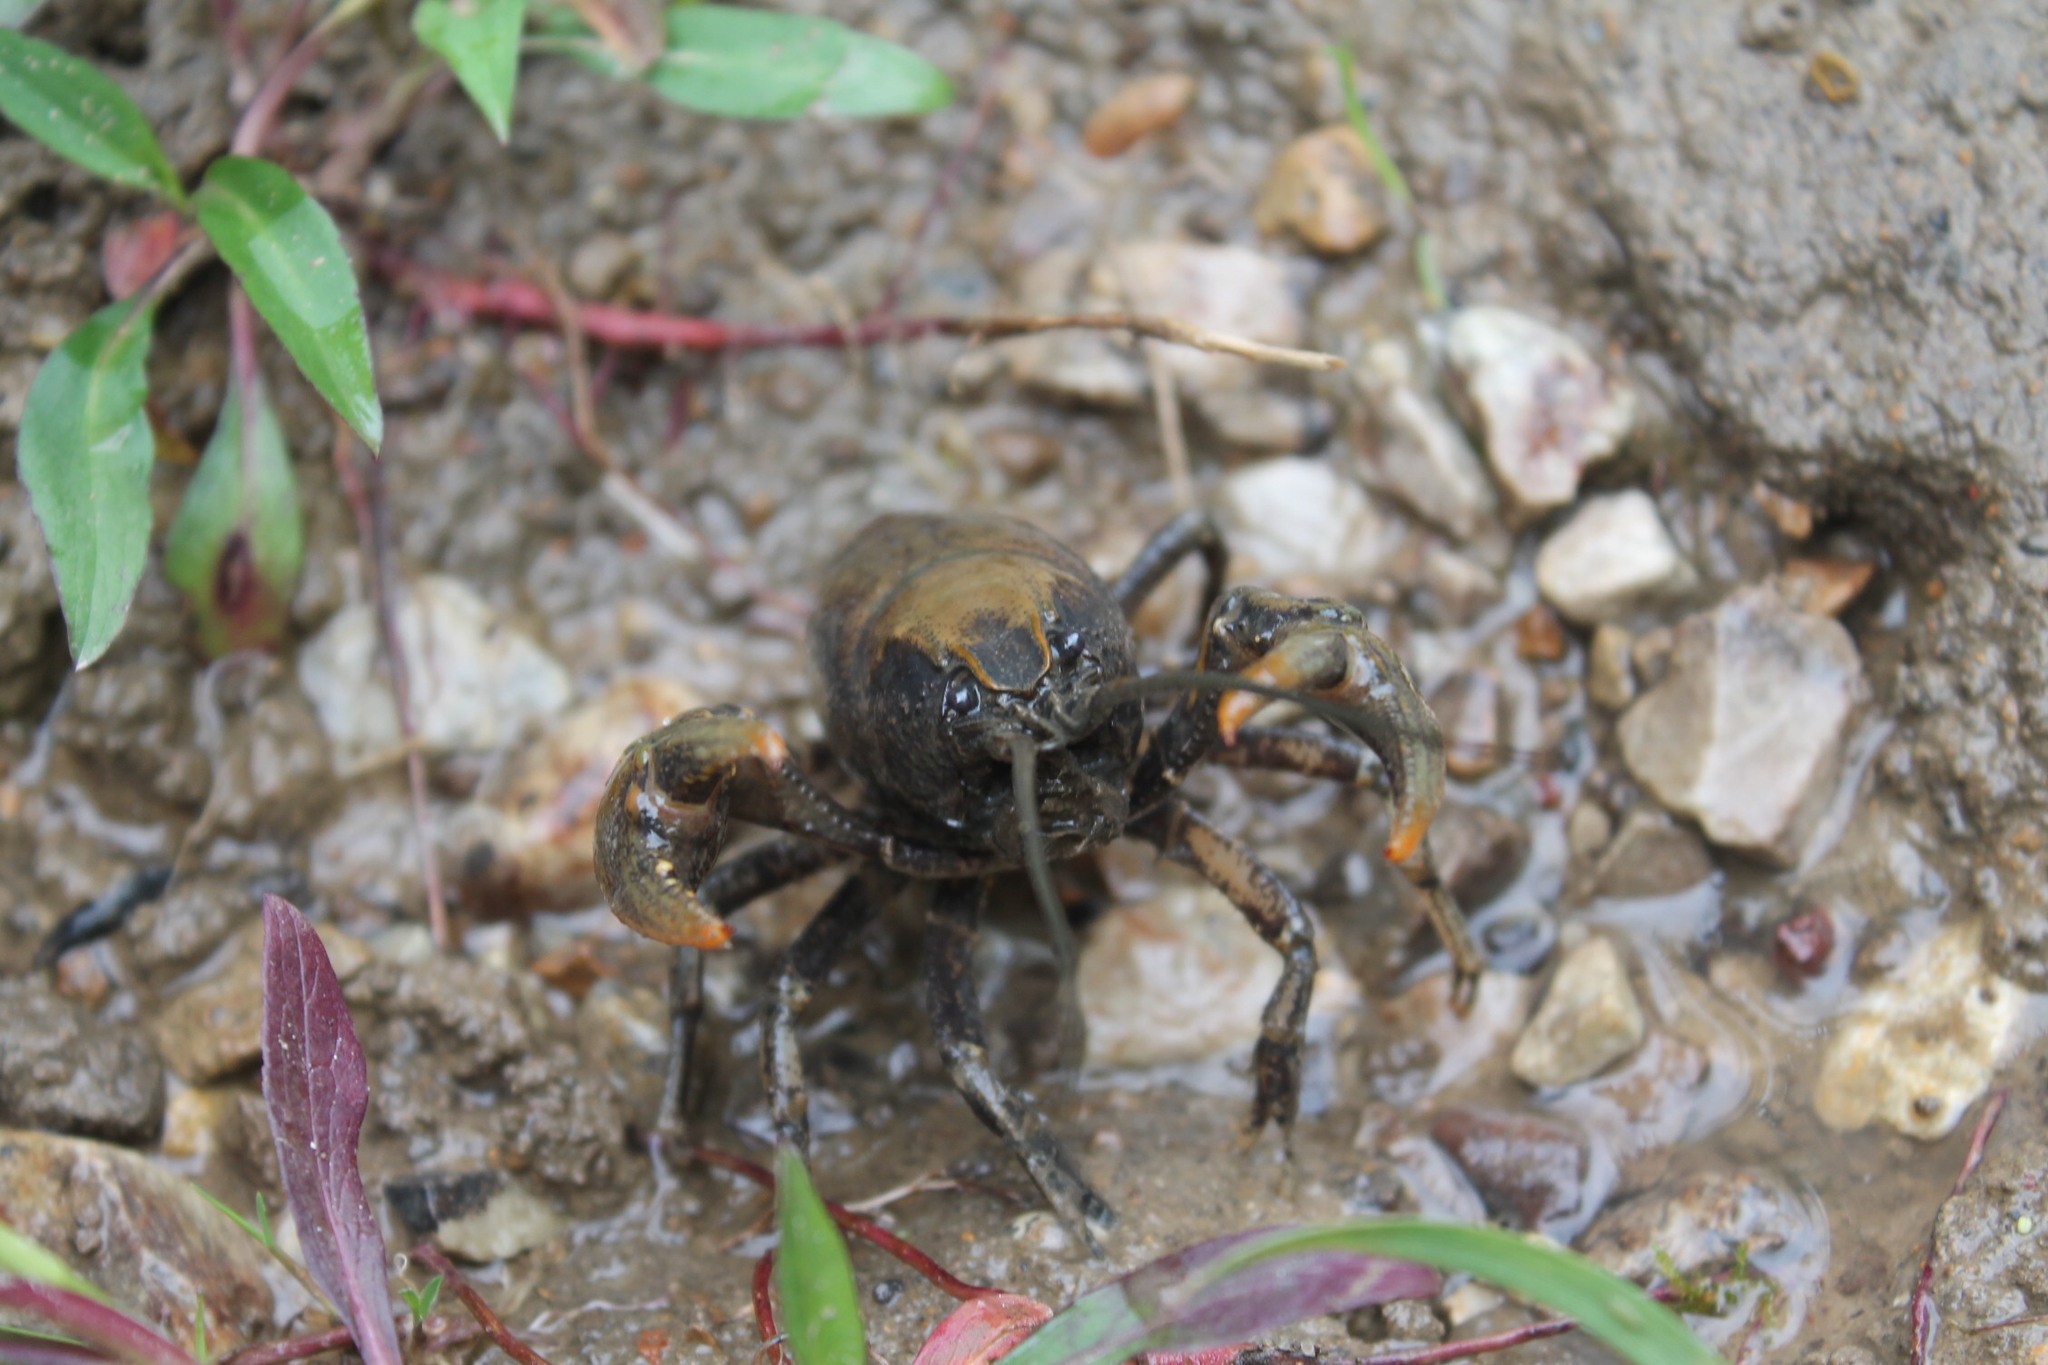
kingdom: Animalia
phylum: Arthropoda
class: Malacostraca
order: Decapoda
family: Cambaridae
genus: Cambarus
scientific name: Cambarus bartonii
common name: Appalachian brook crayfish
